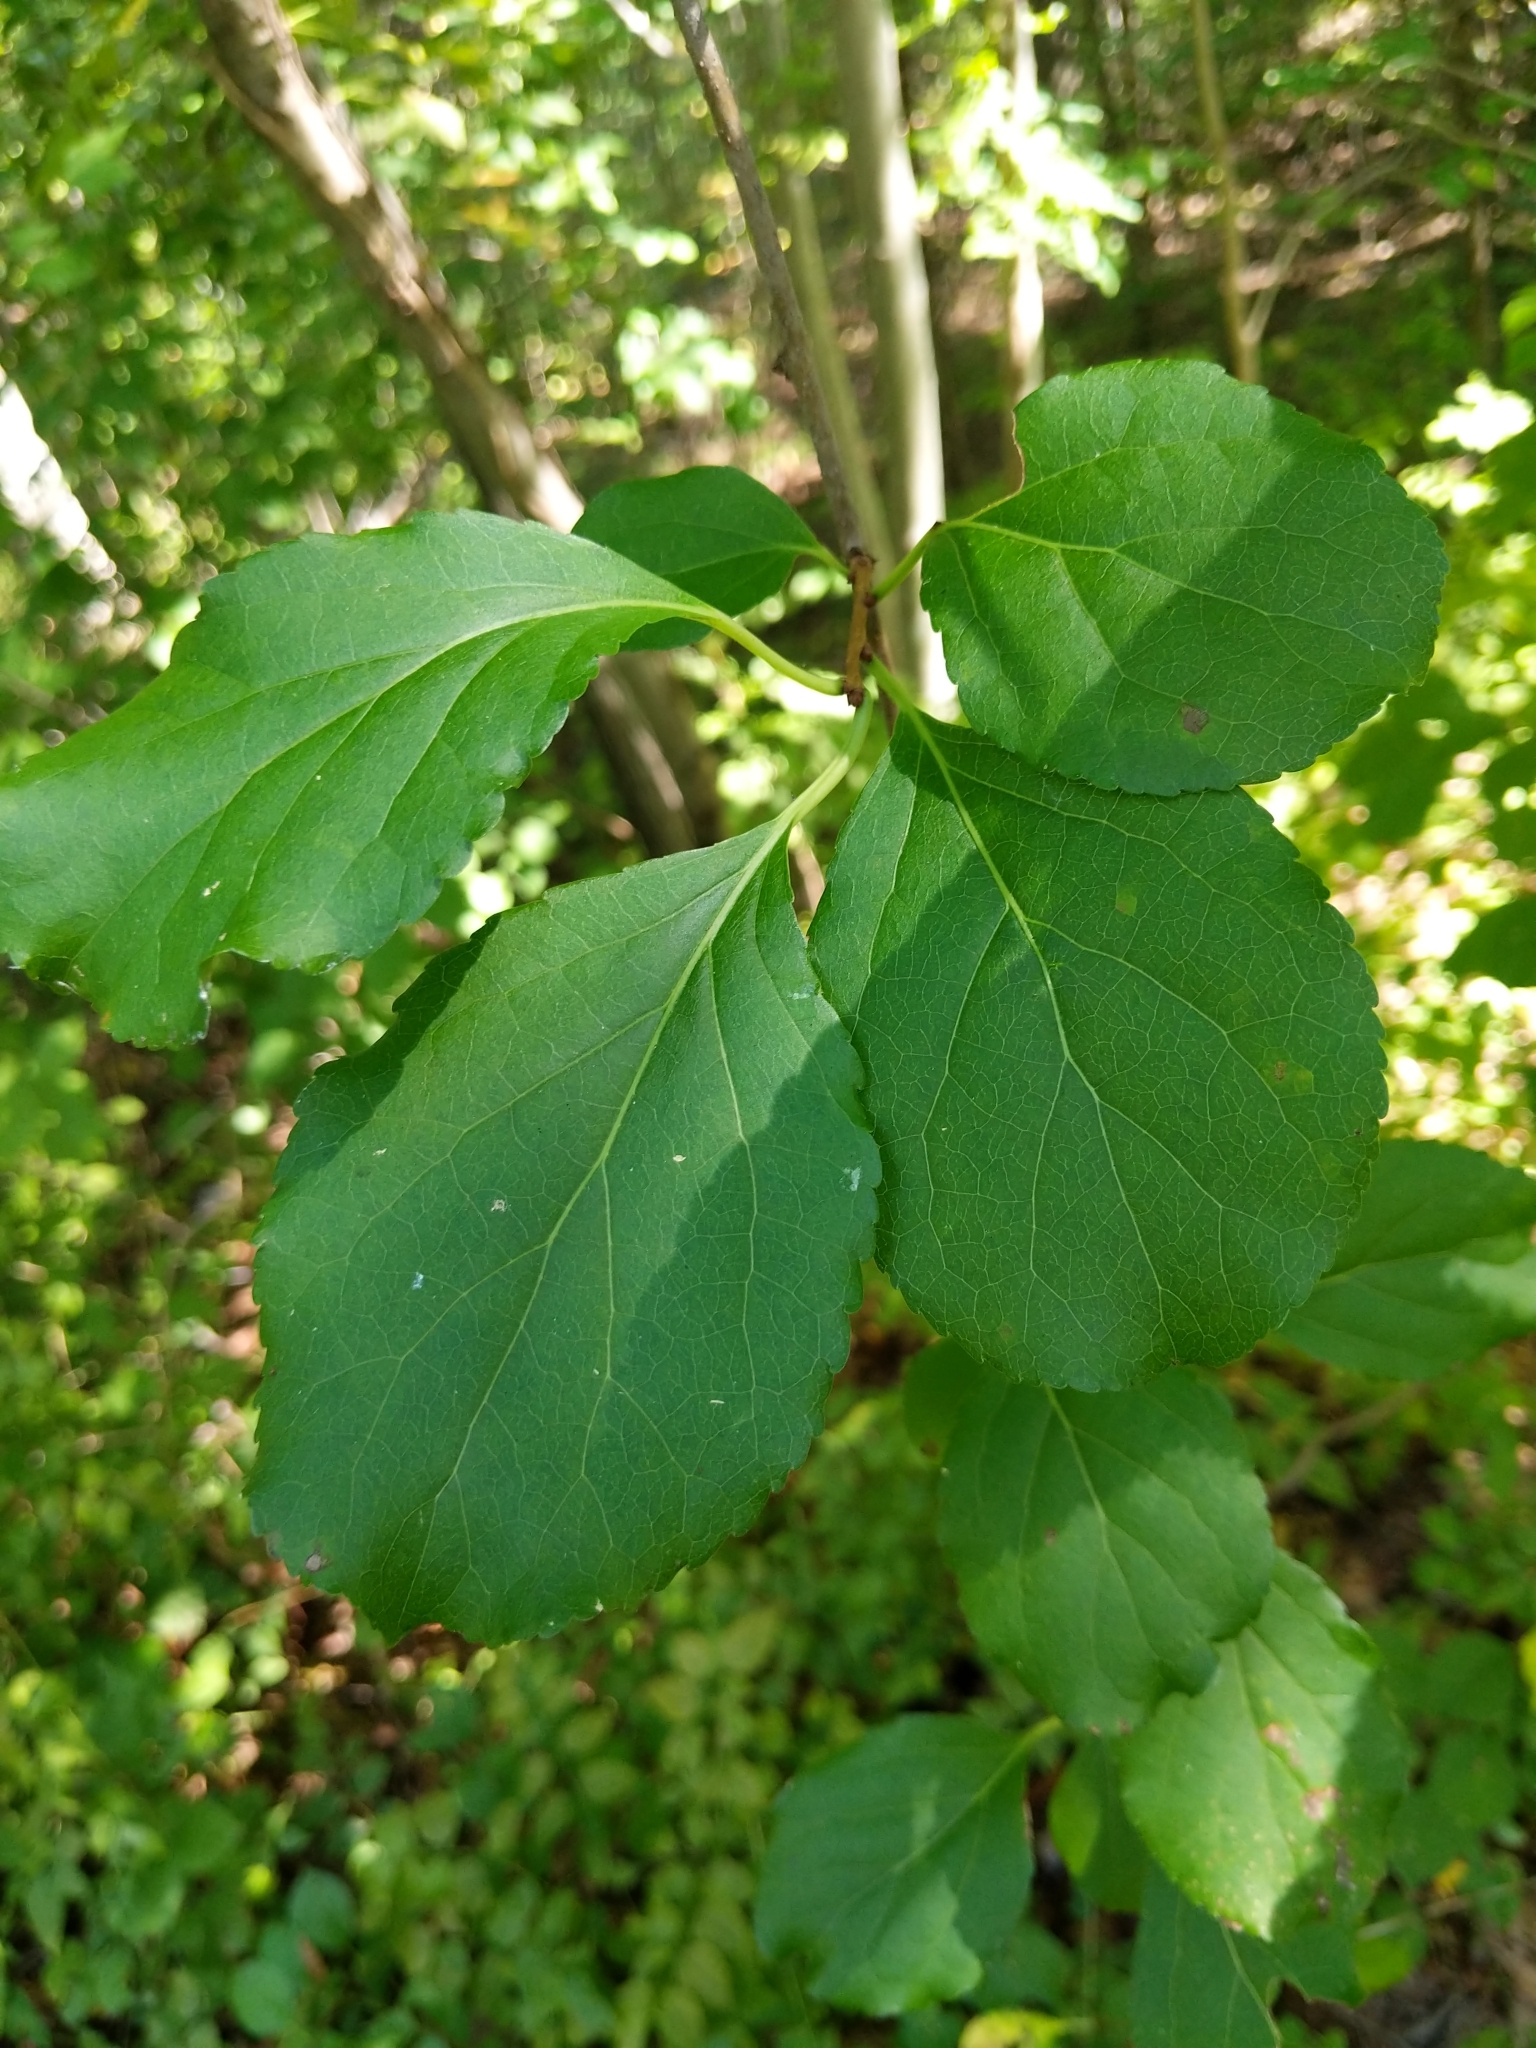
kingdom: Plantae
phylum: Tracheophyta
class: Magnoliopsida
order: Celastrales
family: Celastraceae
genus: Celastrus
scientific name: Celastrus orbiculatus
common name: Oriental bittersweet
